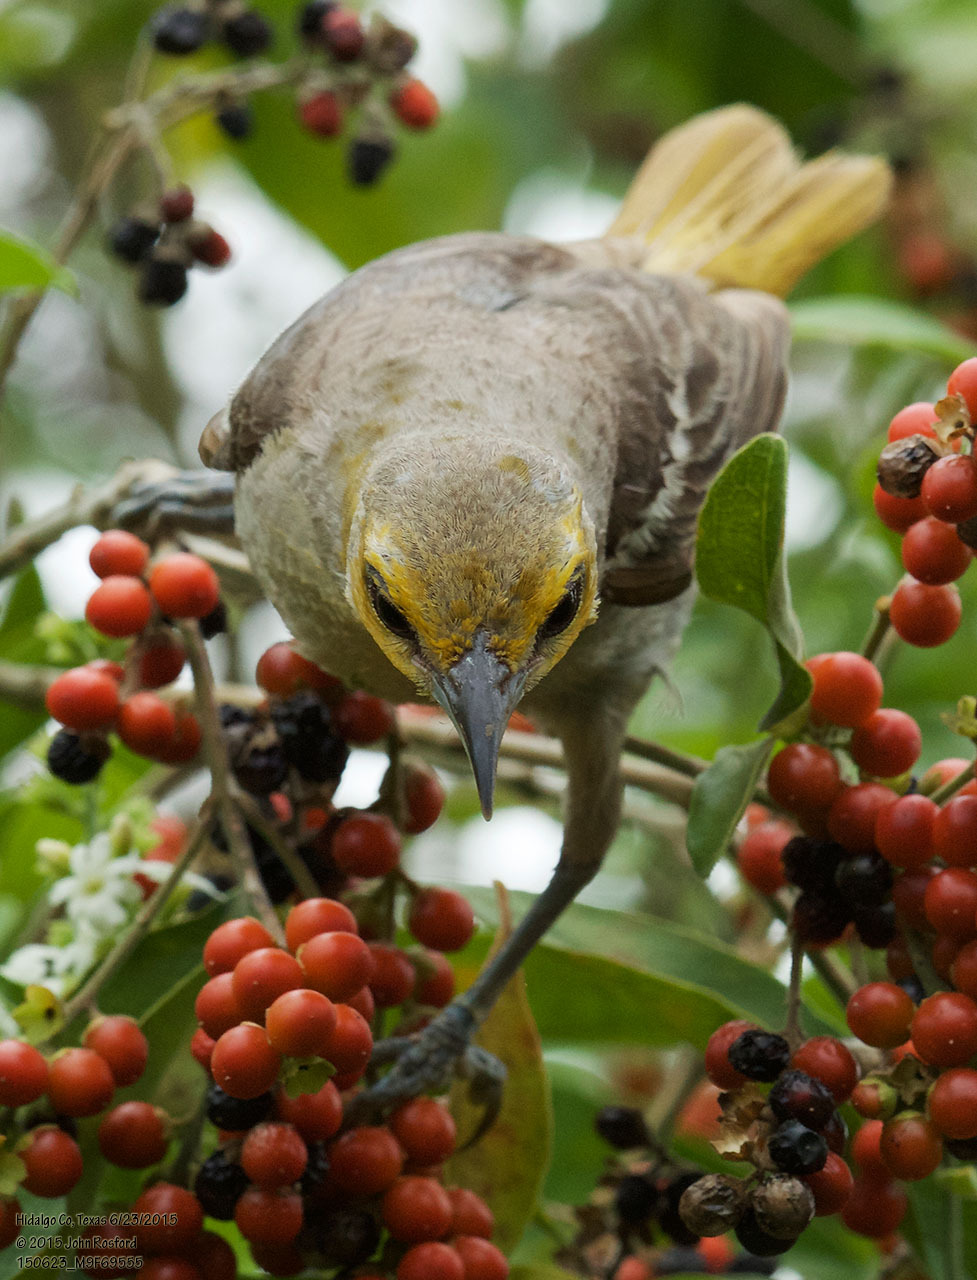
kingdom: Animalia
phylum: Chordata
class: Aves
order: Passeriformes
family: Icteridae
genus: Icterus
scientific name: Icterus bullockii
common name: Bullock's oriole
